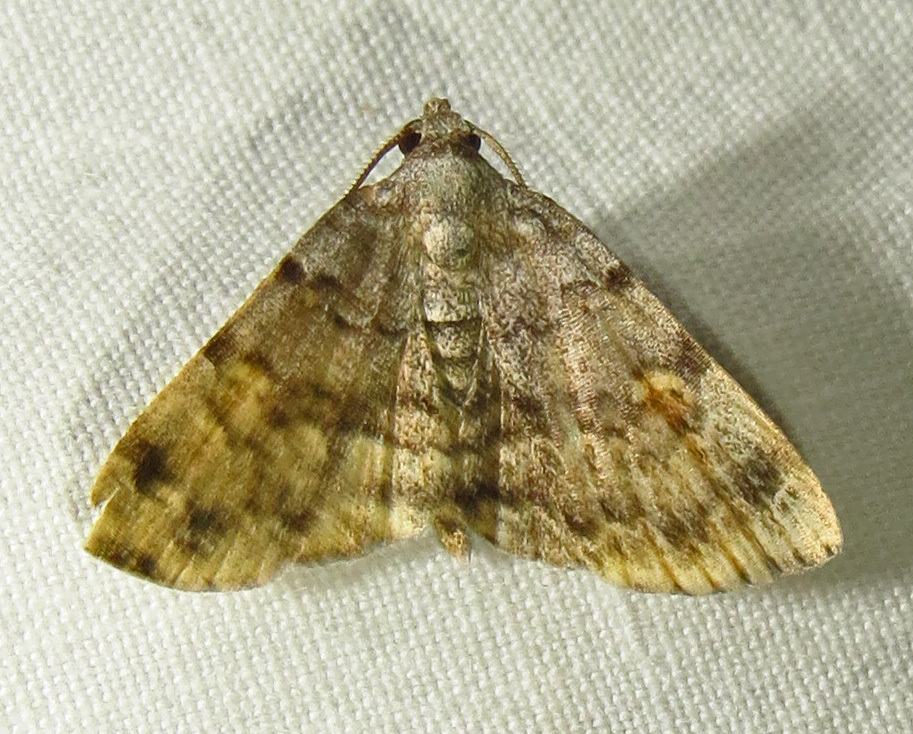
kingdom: Animalia
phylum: Arthropoda
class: Insecta
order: Lepidoptera
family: Erebidae
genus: Idia
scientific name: Idia americalis
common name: American idia moth
